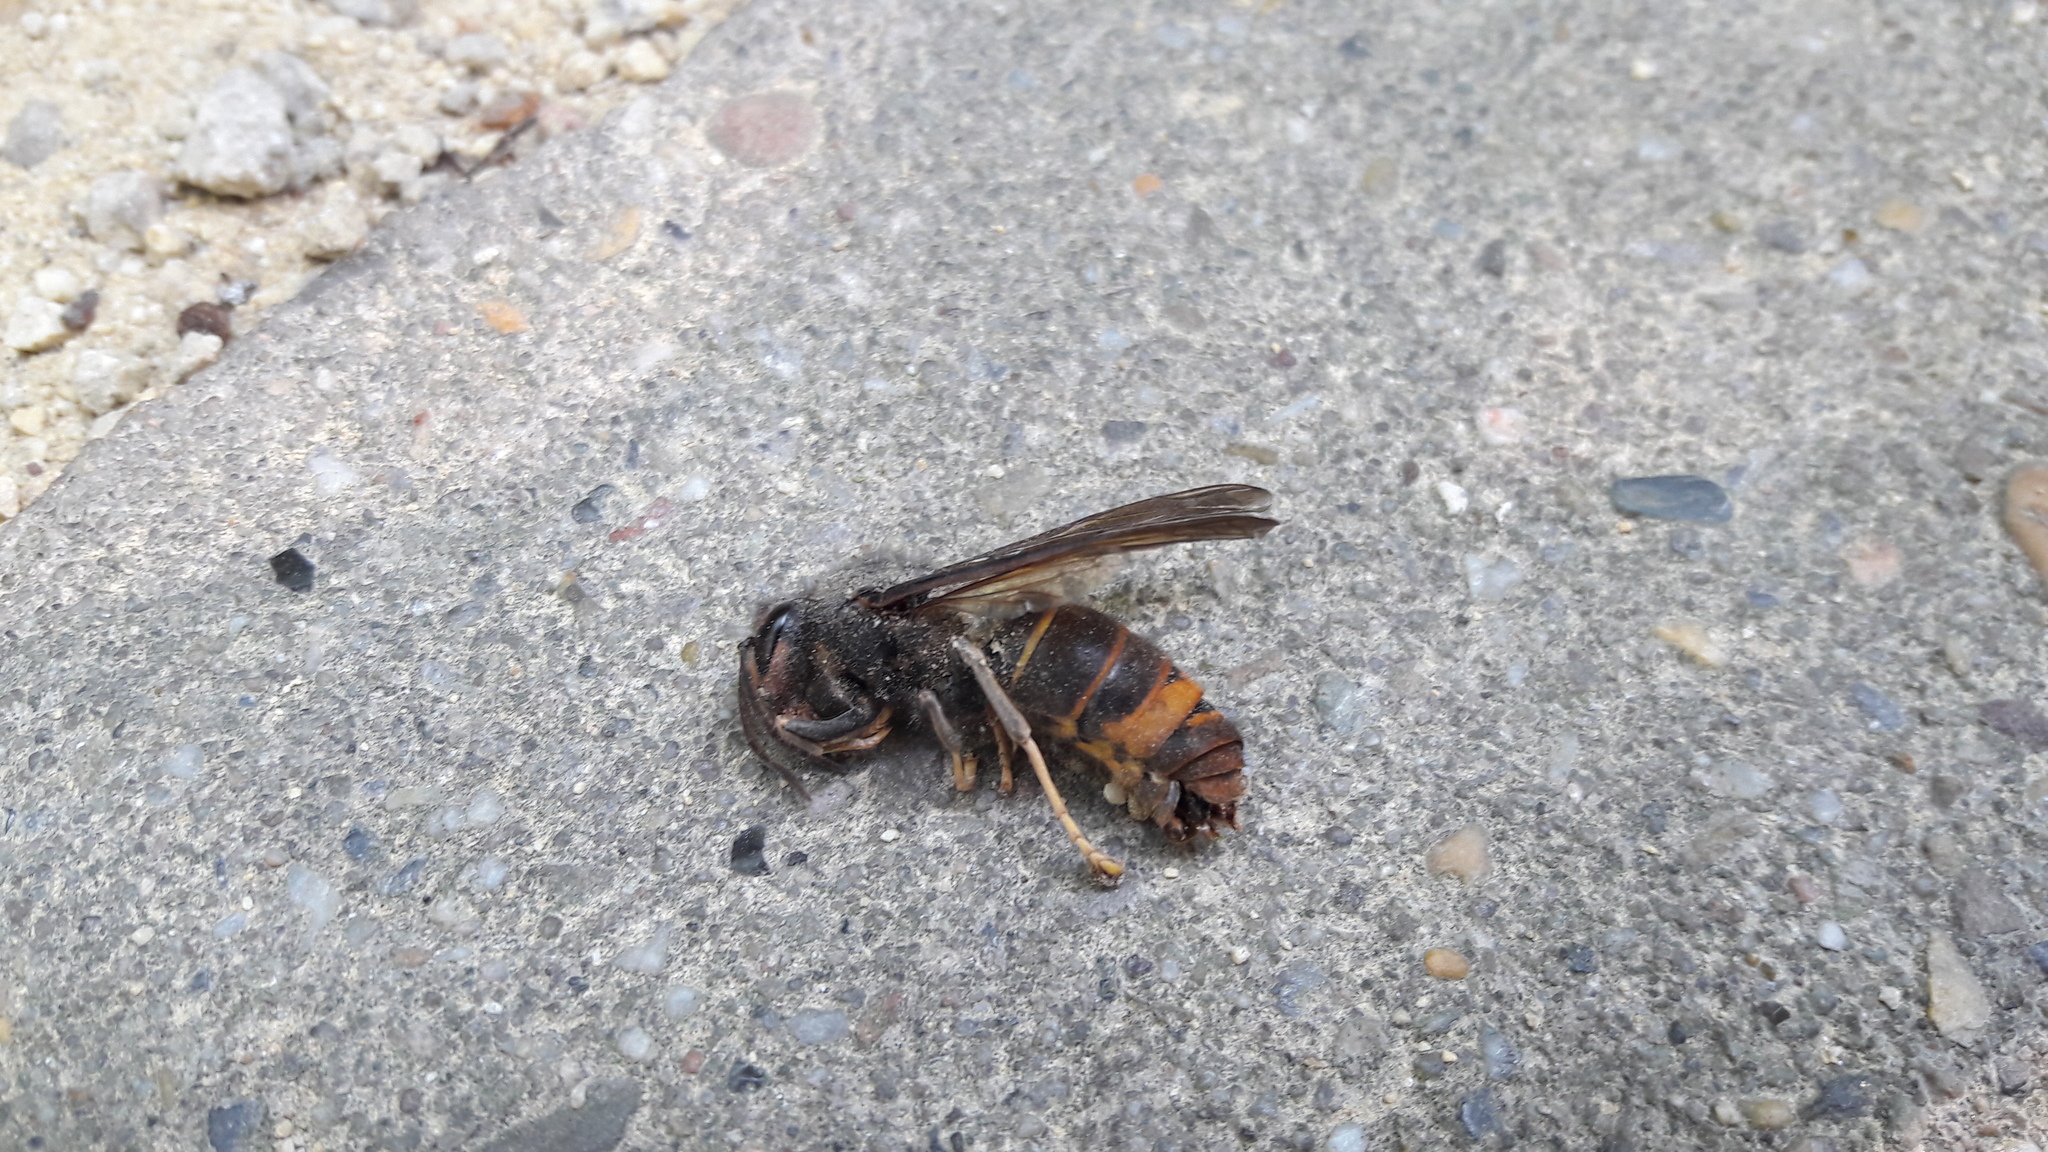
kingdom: Animalia
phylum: Arthropoda
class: Insecta
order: Hymenoptera
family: Vespidae
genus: Vespa
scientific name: Vespa velutina
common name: Asian hornet
